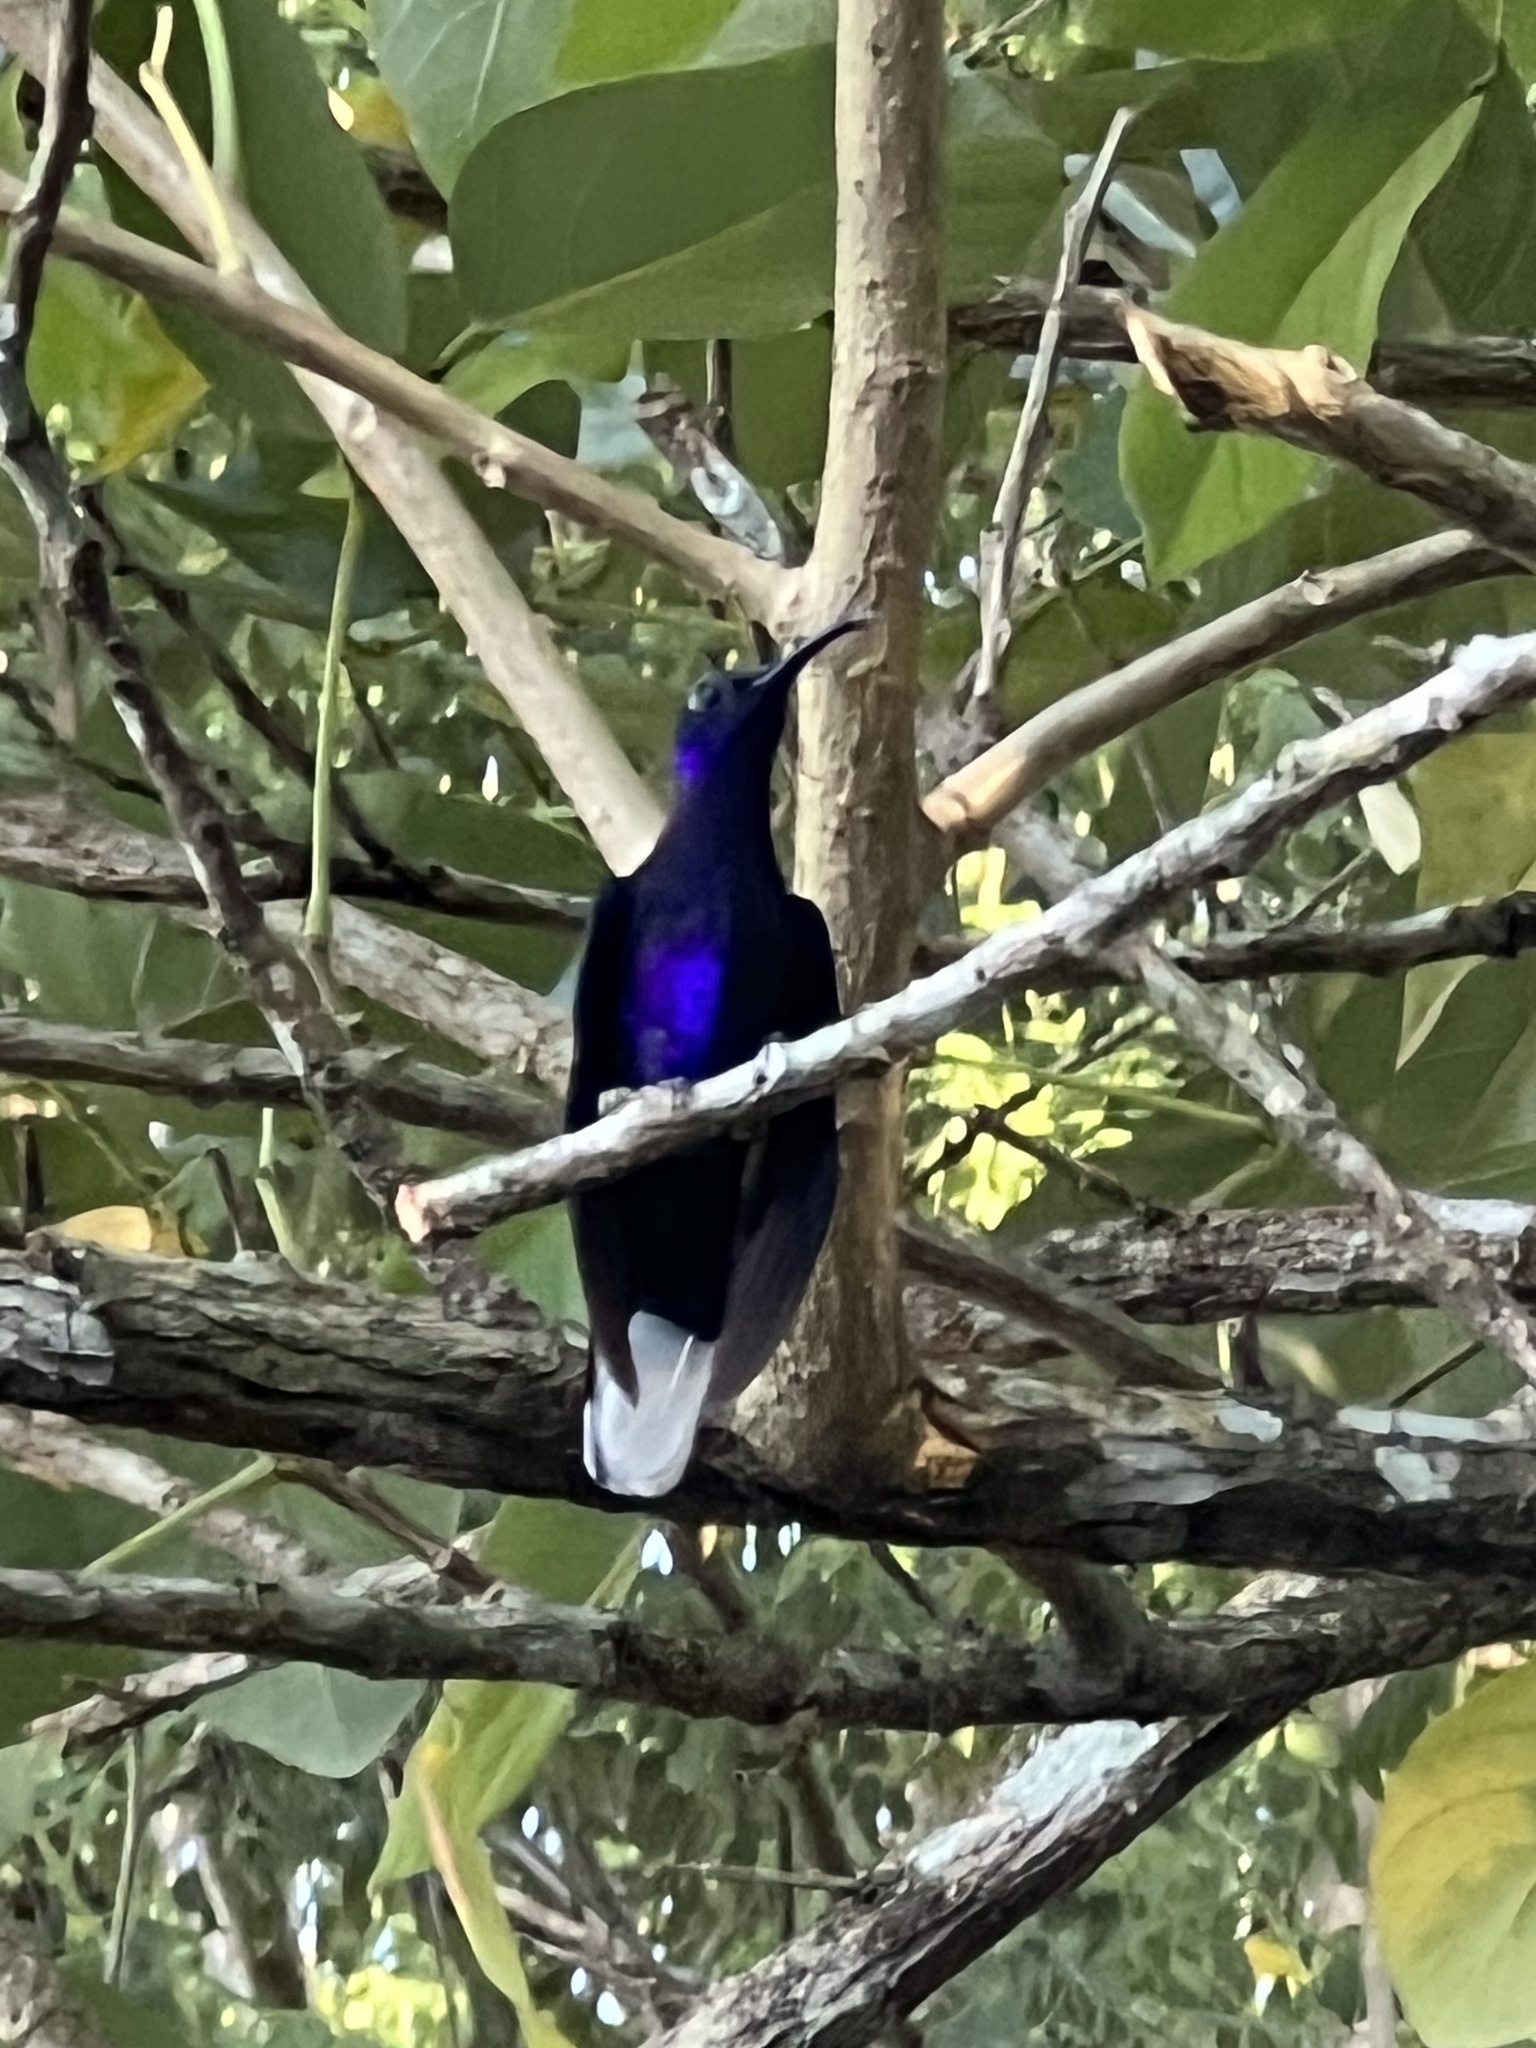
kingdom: Animalia
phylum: Chordata
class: Aves
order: Apodiformes
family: Trochilidae
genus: Campylopterus
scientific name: Campylopterus hemileucurus
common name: Violet sabrewing
